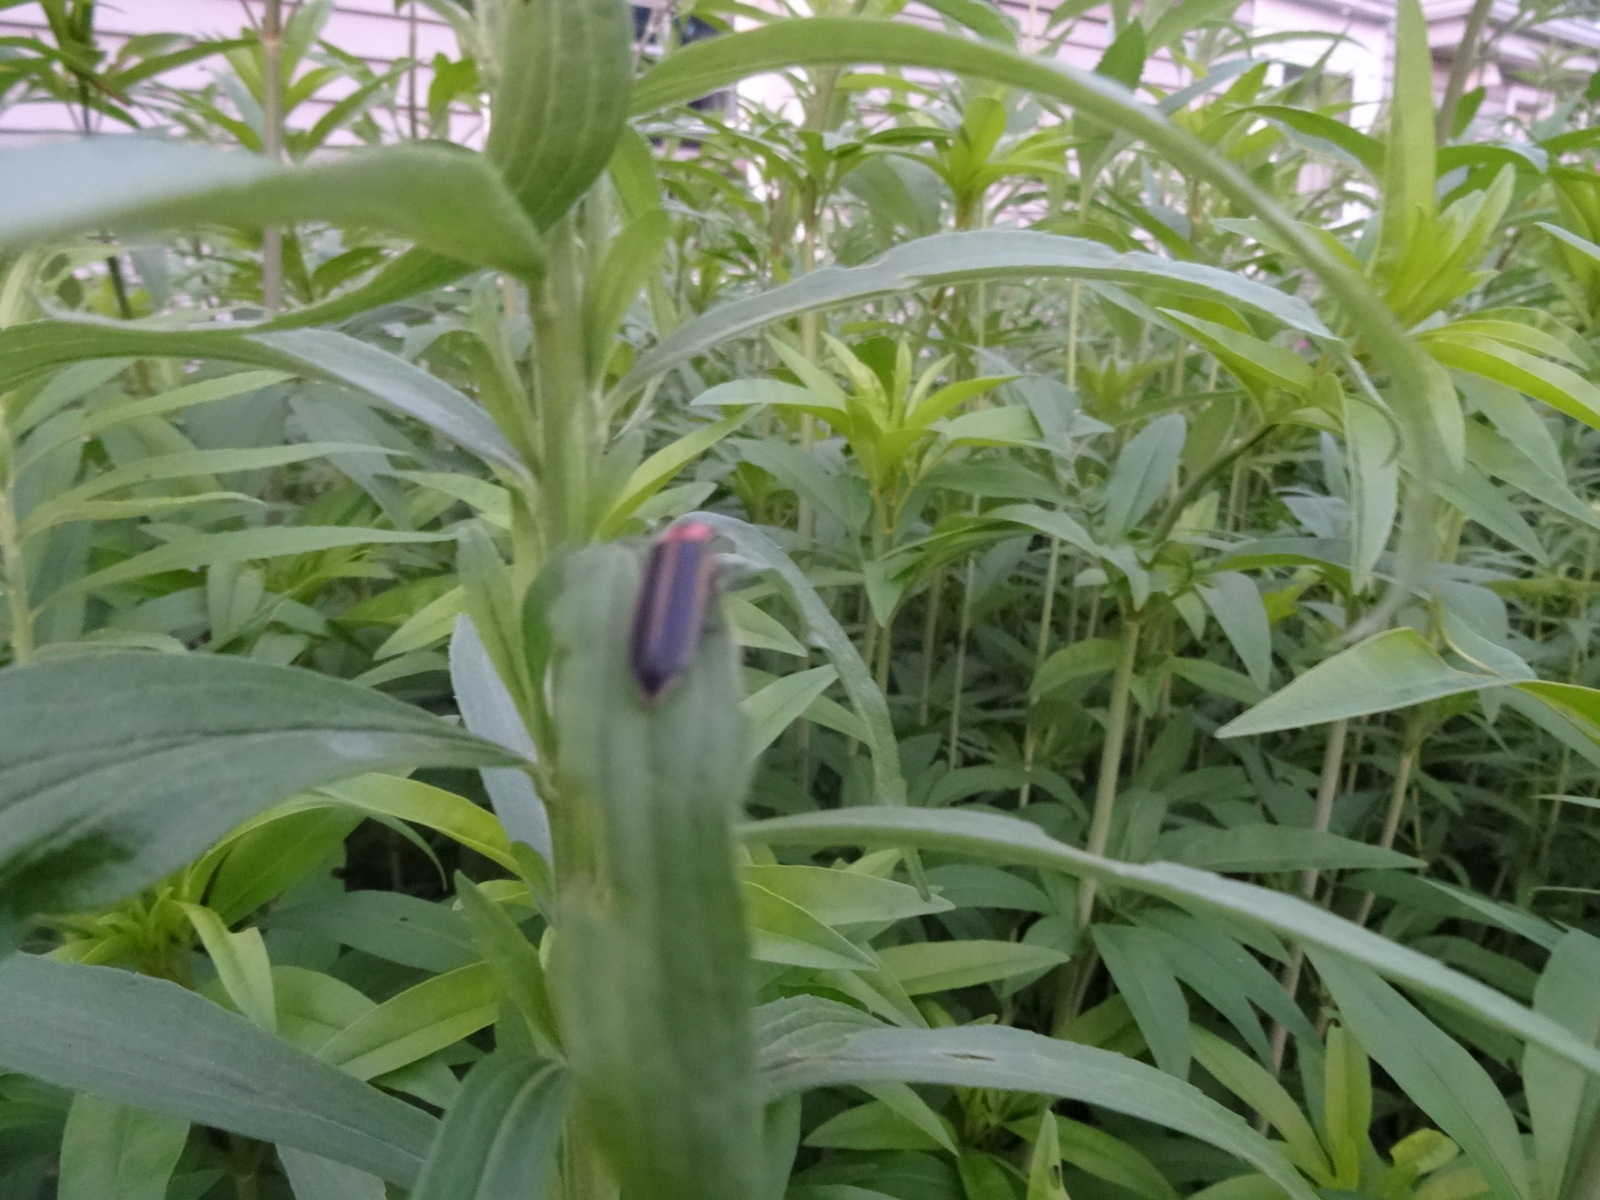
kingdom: Animalia
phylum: Arthropoda
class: Insecta
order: Coleoptera
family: Lampyridae
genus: Photinus
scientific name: Photinus pyralis
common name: Big dipper firefly
